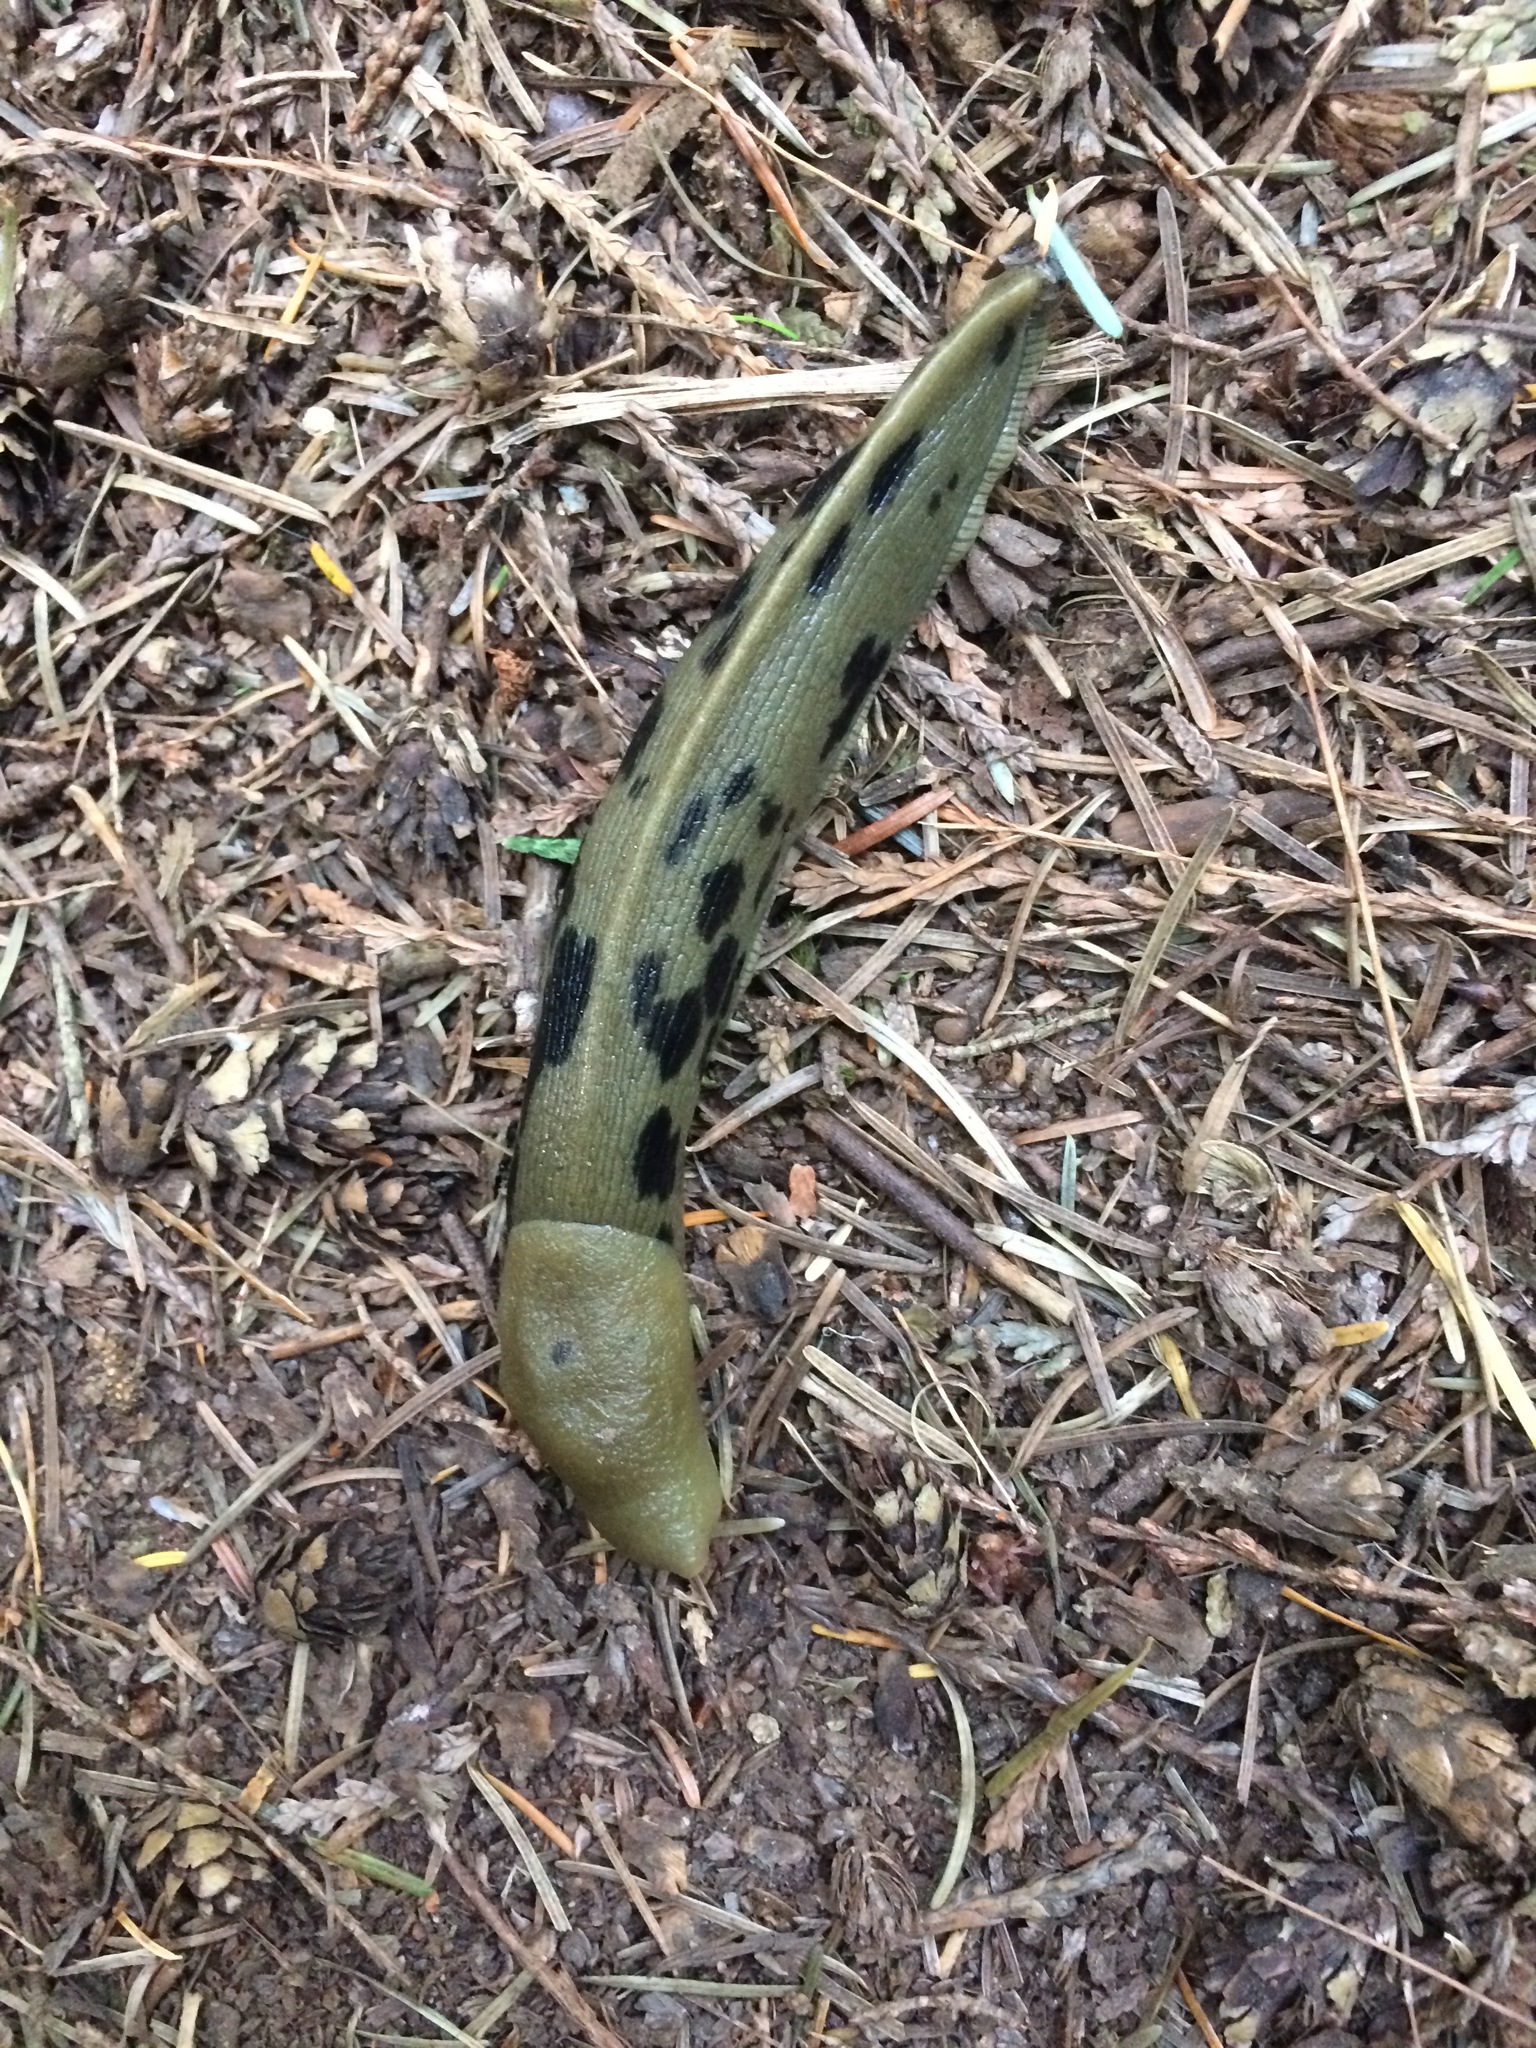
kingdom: Animalia
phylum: Mollusca
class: Gastropoda
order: Stylommatophora
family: Ariolimacidae
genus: Ariolimax
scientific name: Ariolimax columbianus
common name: Pacific banana slug
